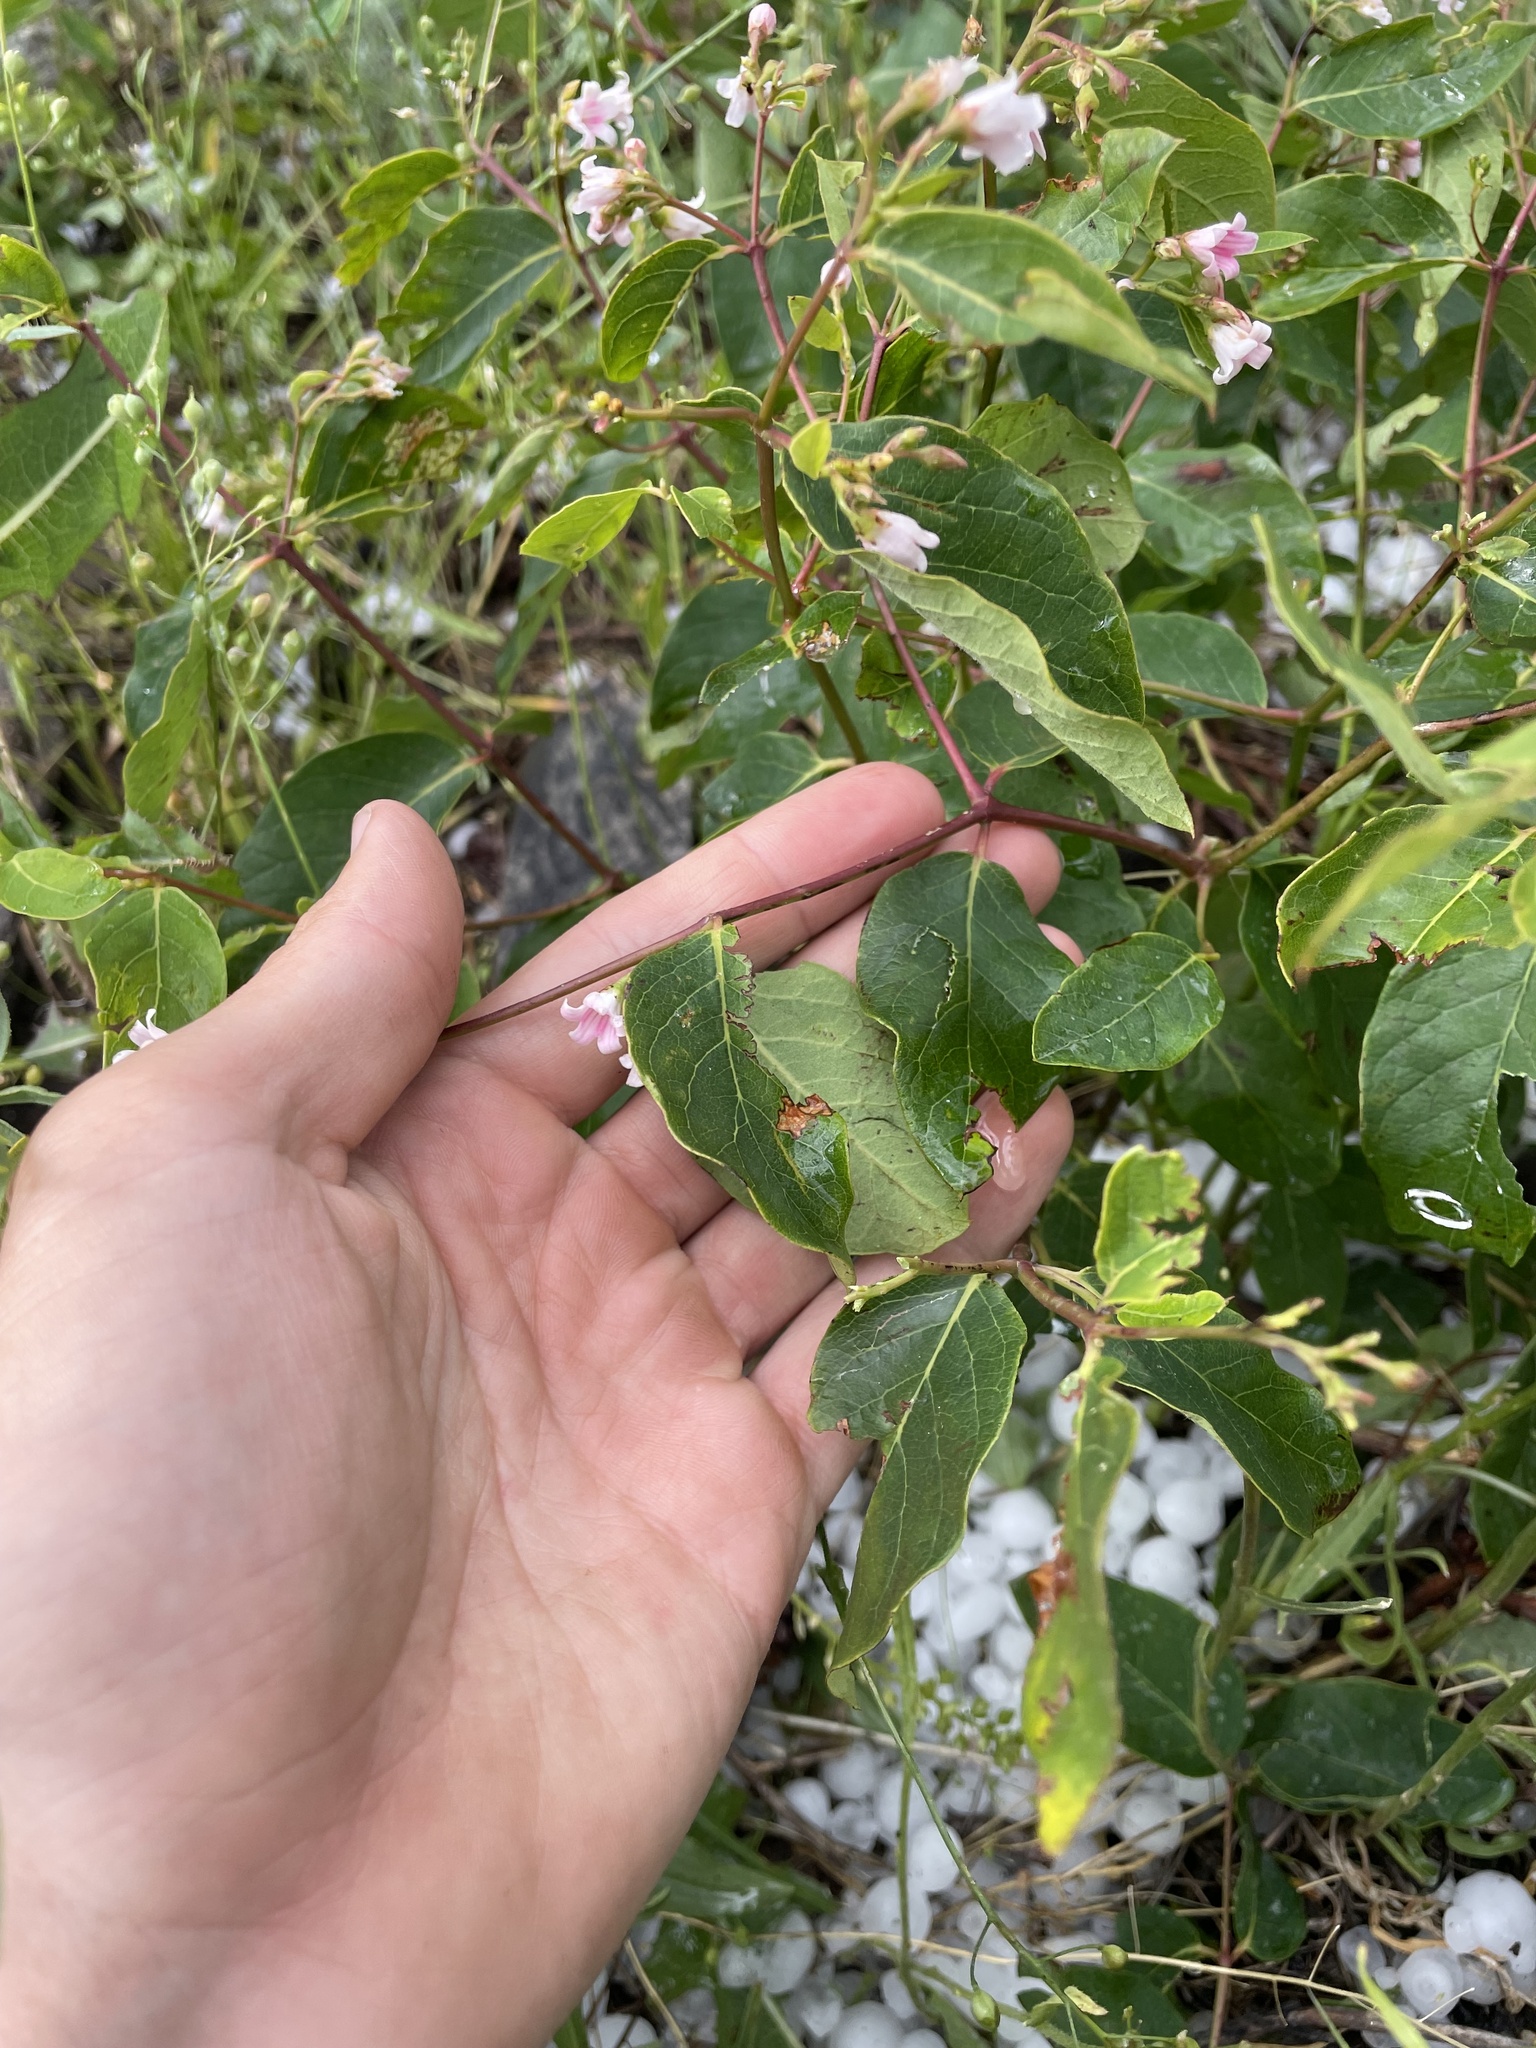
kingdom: Plantae
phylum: Tracheophyta
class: Magnoliopsida
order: Gentianales
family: Apocynaceae
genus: Apocynum
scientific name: Apocynum androsaemifolium
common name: Spreading dogbane
